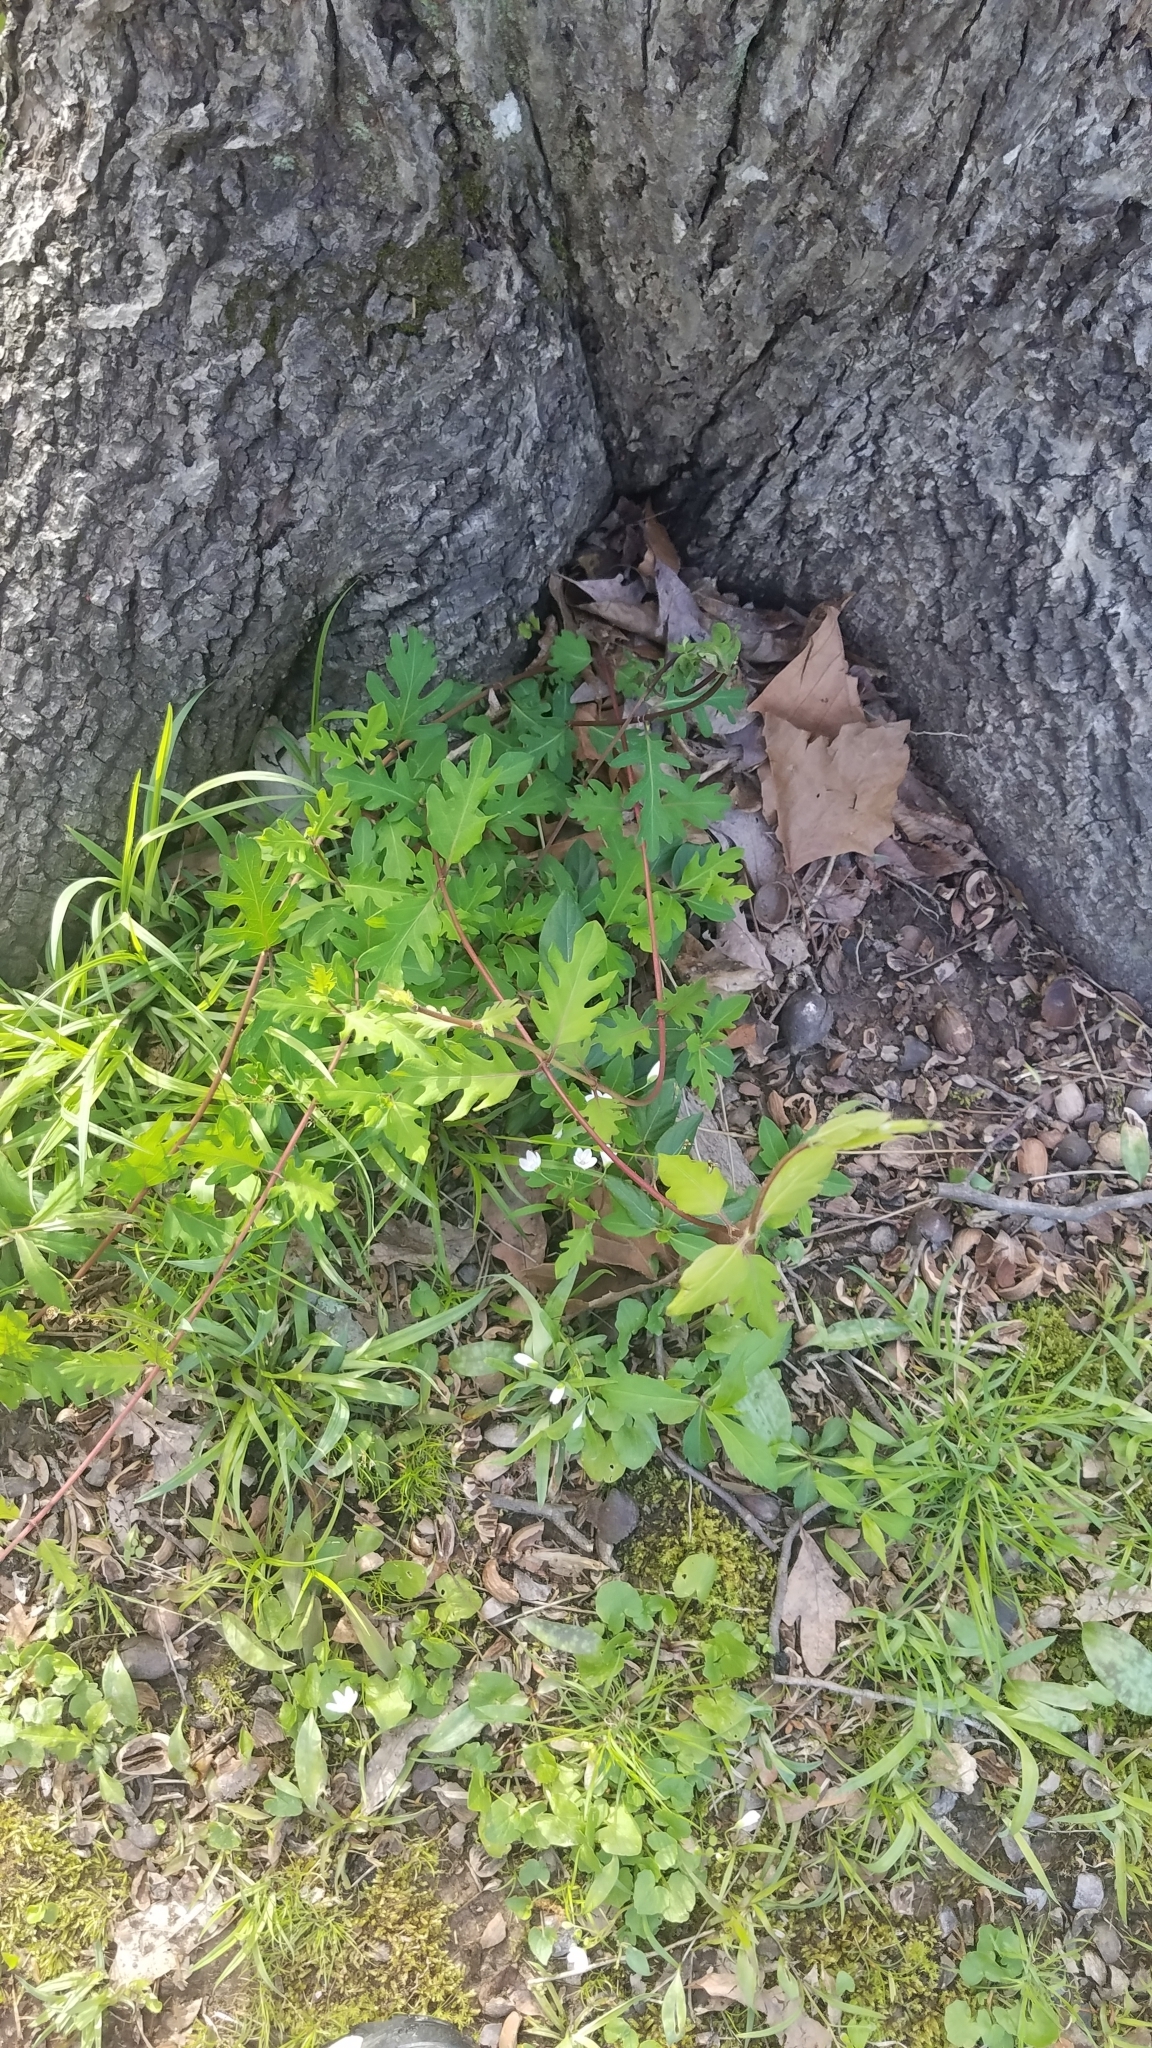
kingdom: Plantae
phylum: Tracheophyta
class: Magnoliopsida
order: Dipsacales
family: Caprifoliaceae
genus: Lonicera
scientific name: Lonicera japonica
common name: Japanese honeysuckle
